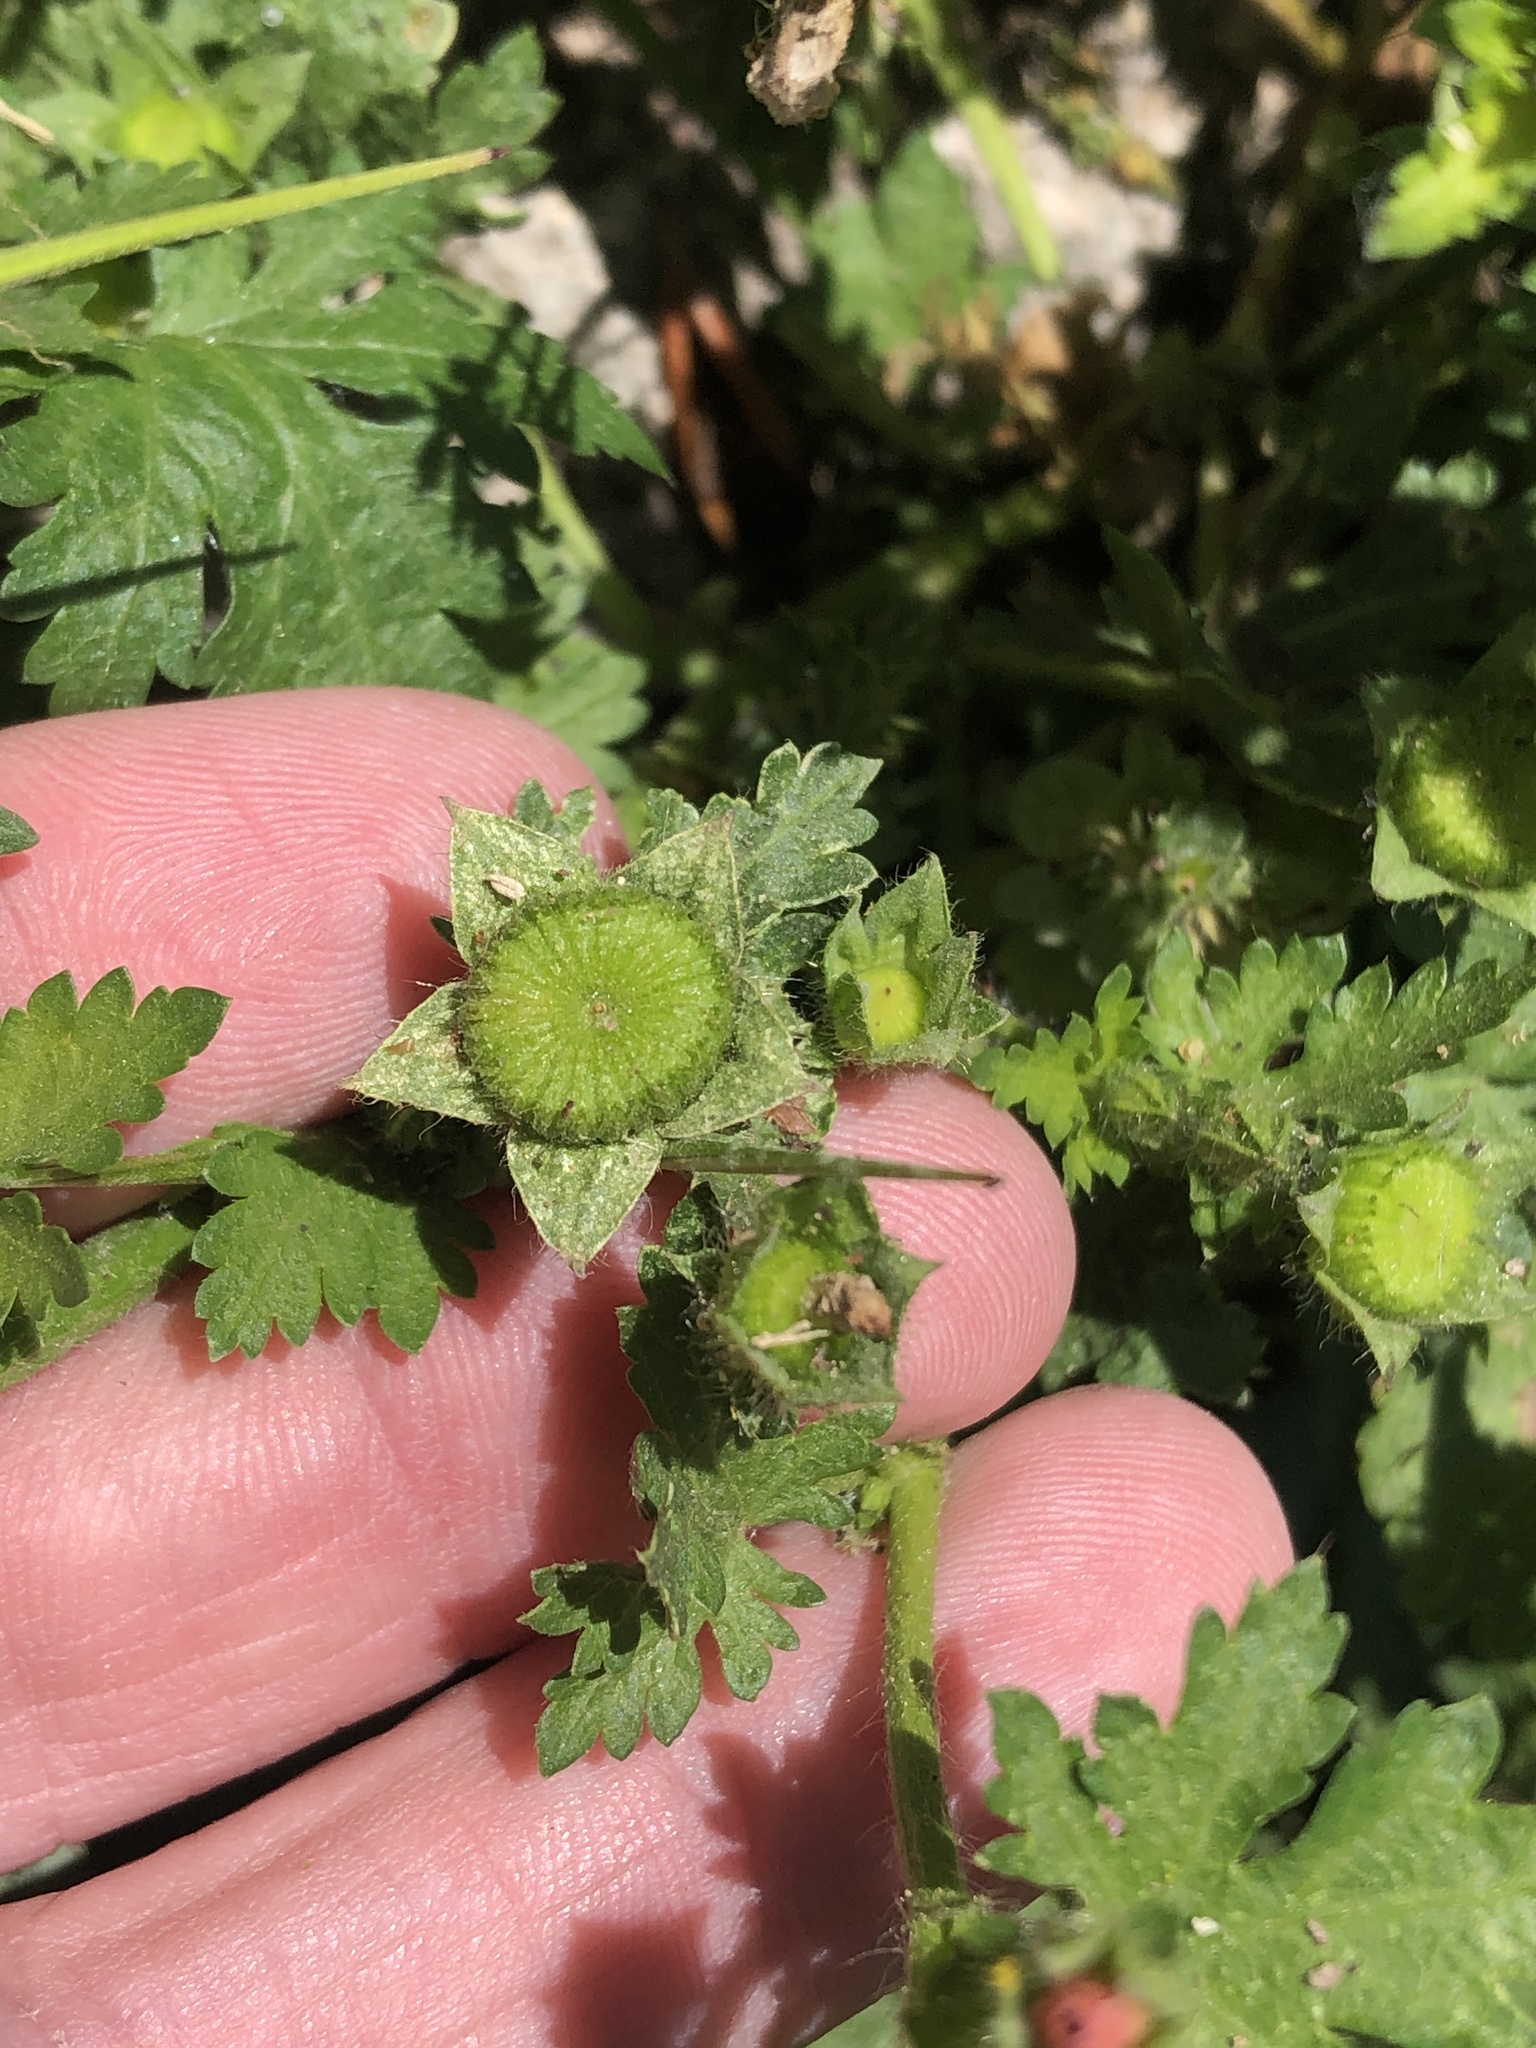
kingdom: Plantae
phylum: Tracheophyta
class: Magnoliopsida
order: Malvales
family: Malvaceae
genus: Modiola
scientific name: Modiola caroliniana
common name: Carolina bristlemallow
